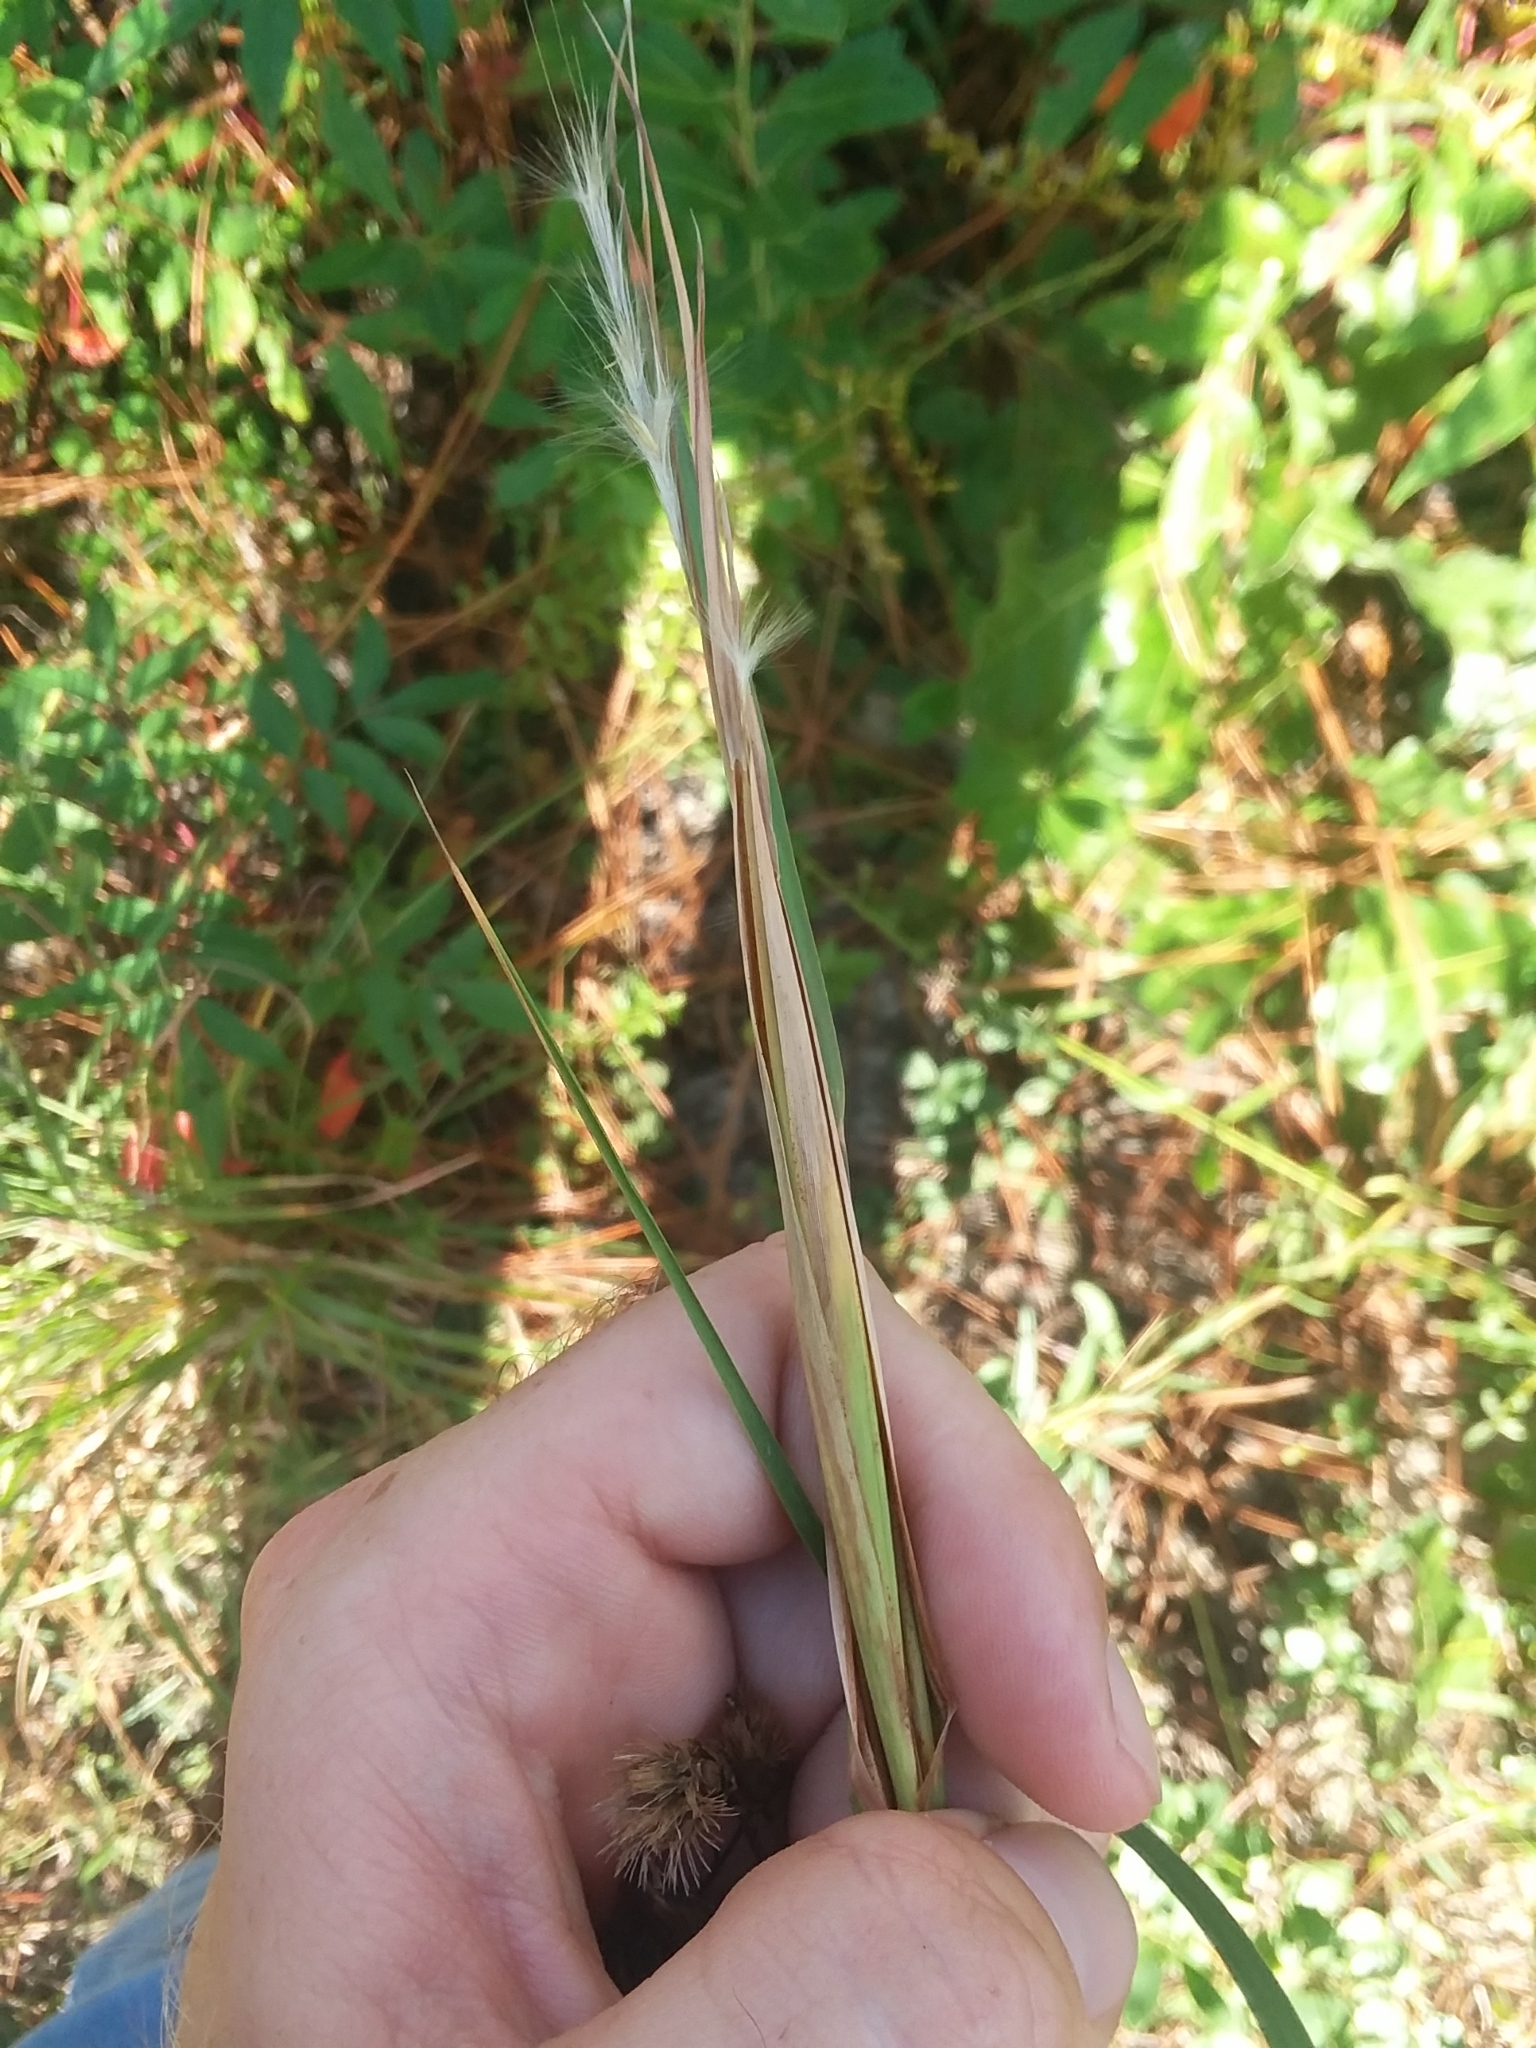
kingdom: Plantae
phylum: Tracheophyta
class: Liliopsida
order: Poales
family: Poaceae
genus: Andropogon
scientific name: Andropogon gyrans
